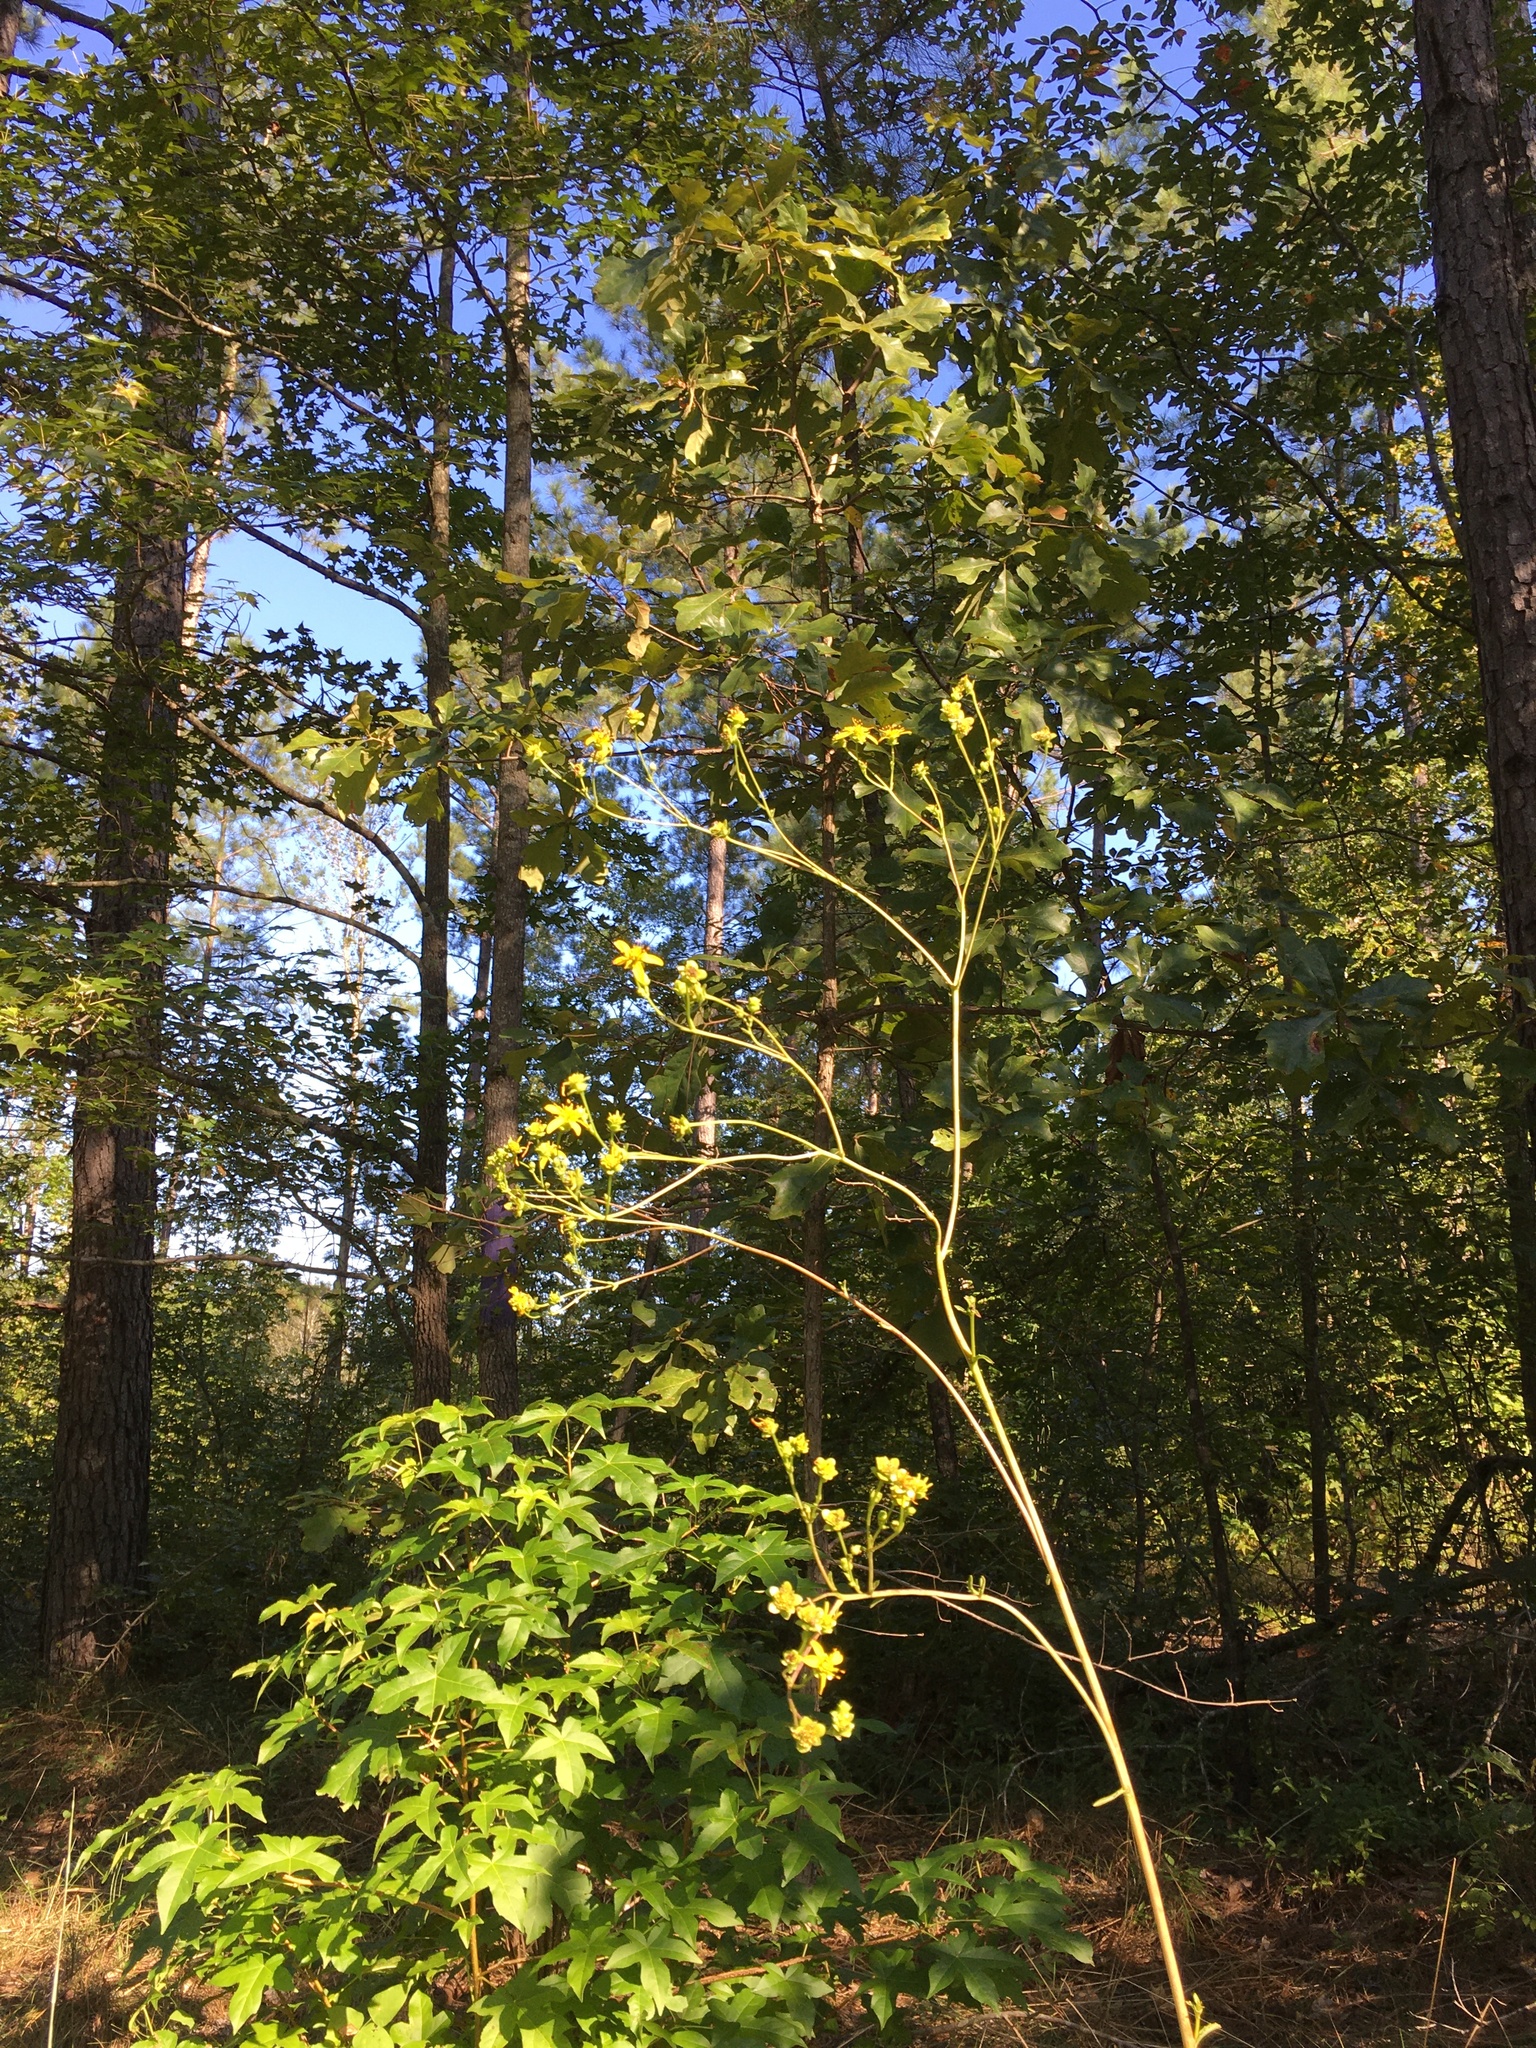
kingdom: Plantae
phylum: Tracheophyta
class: Magnoliopsida
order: Asterales
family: Asteraceae
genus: Silphium
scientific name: Silphium compositum
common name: Lesser basal-leaf rosinweed
